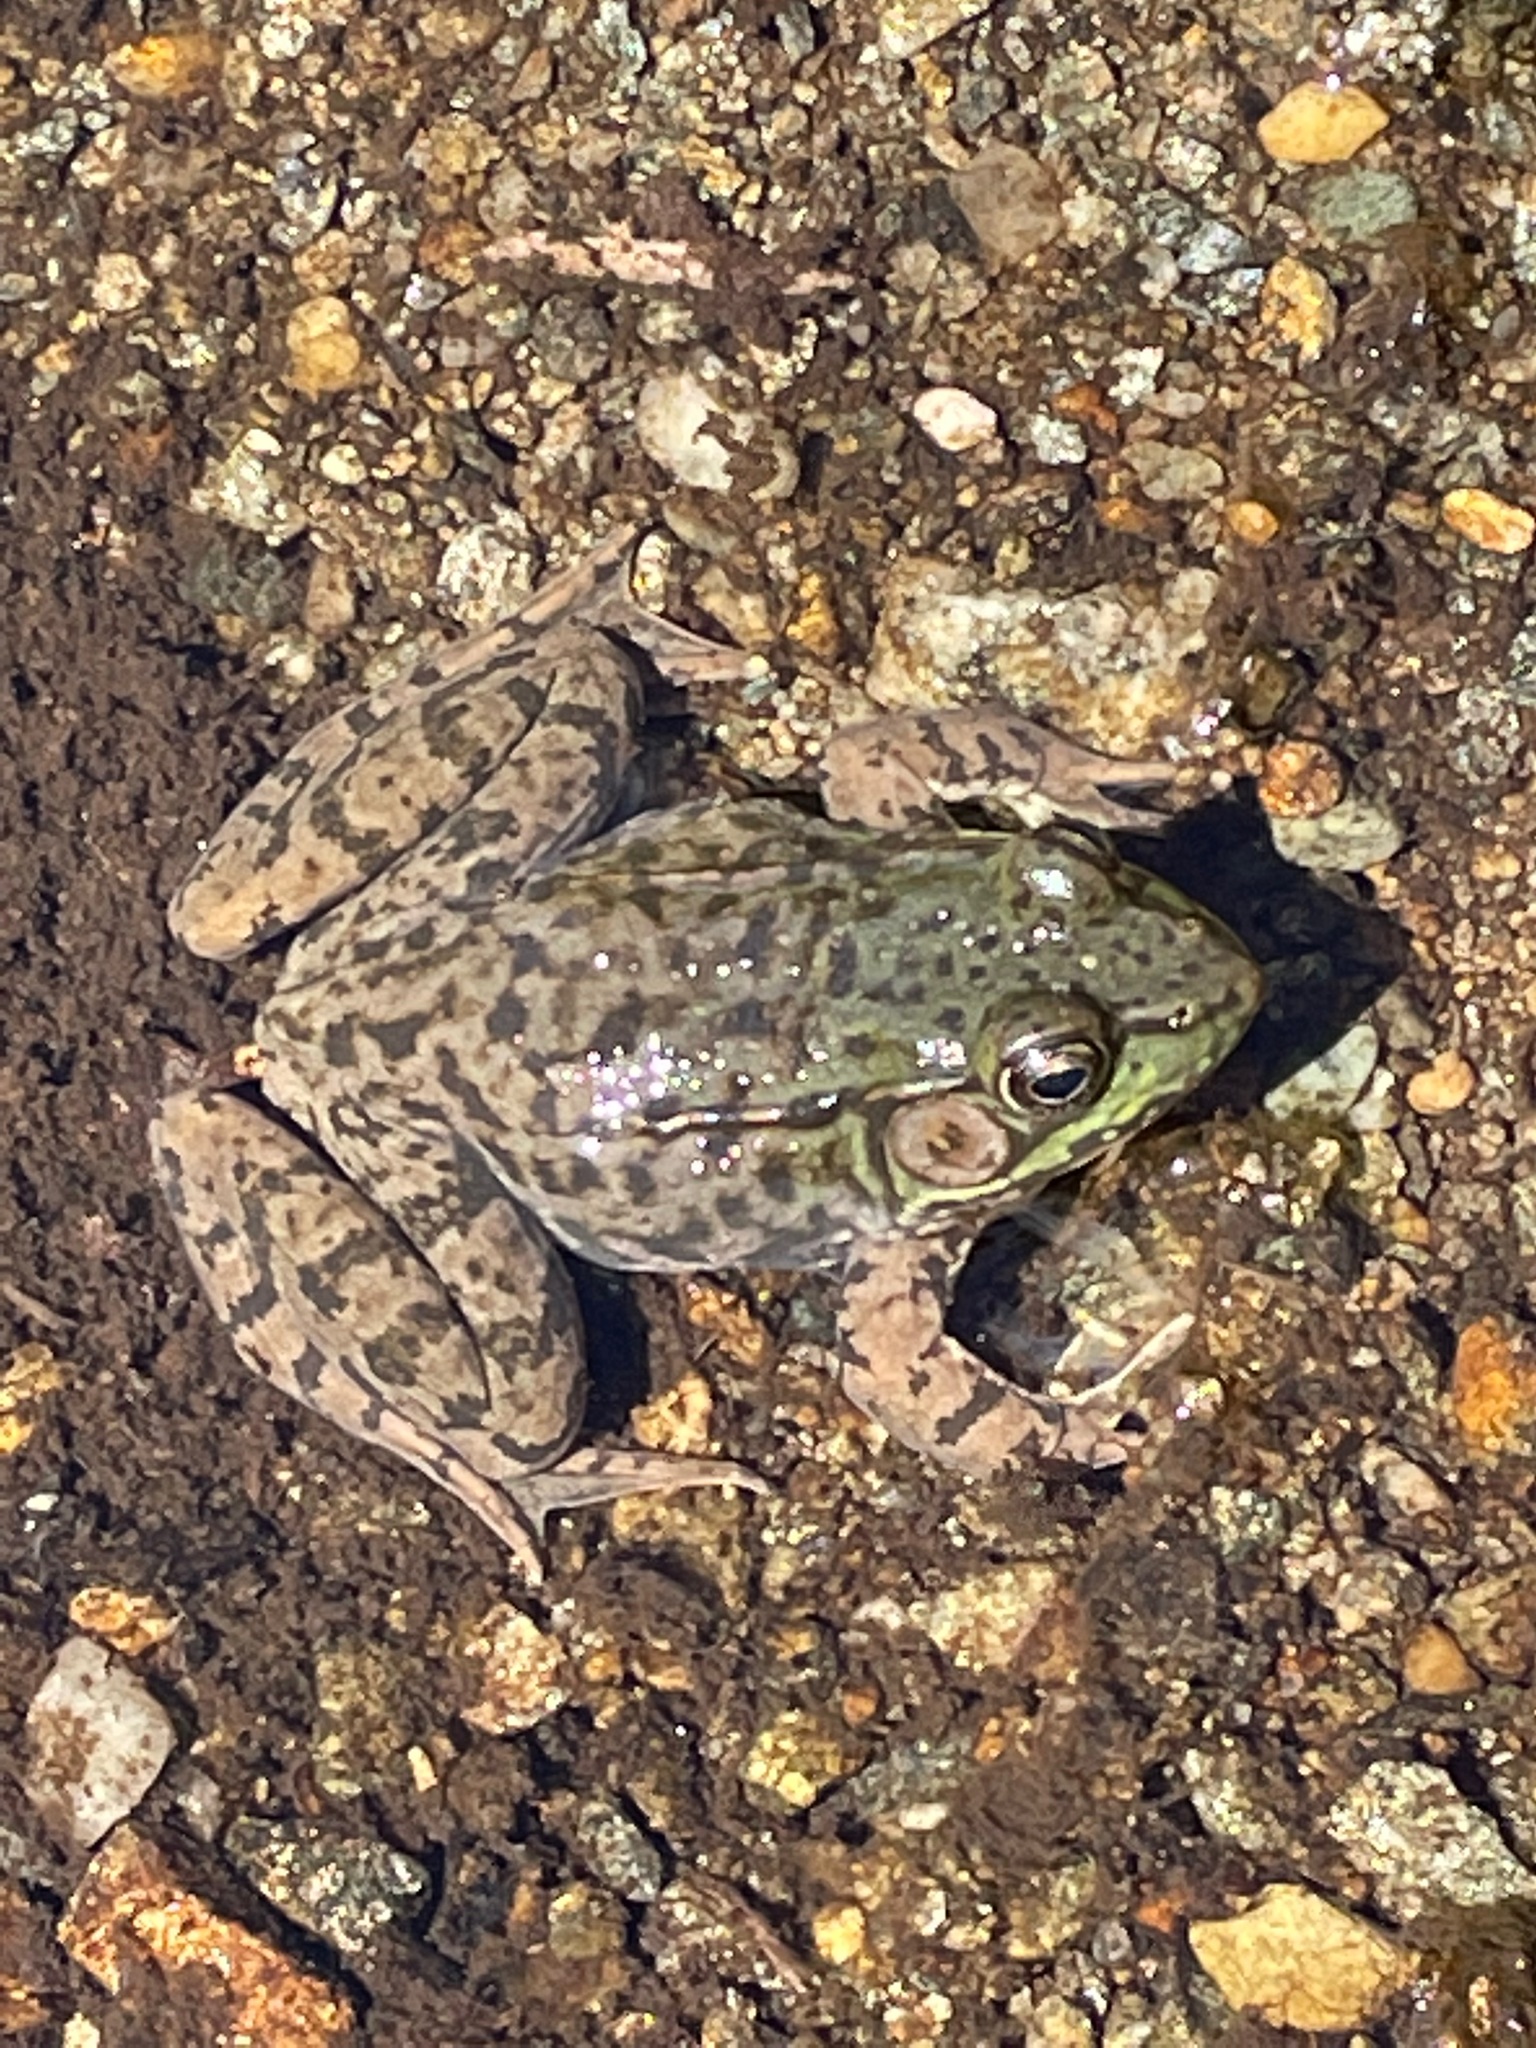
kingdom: Animalia
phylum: Chordata
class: Amphibia
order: Anura
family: Ranidae
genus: Lithobates
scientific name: Lithobates clamitans
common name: Green frog
